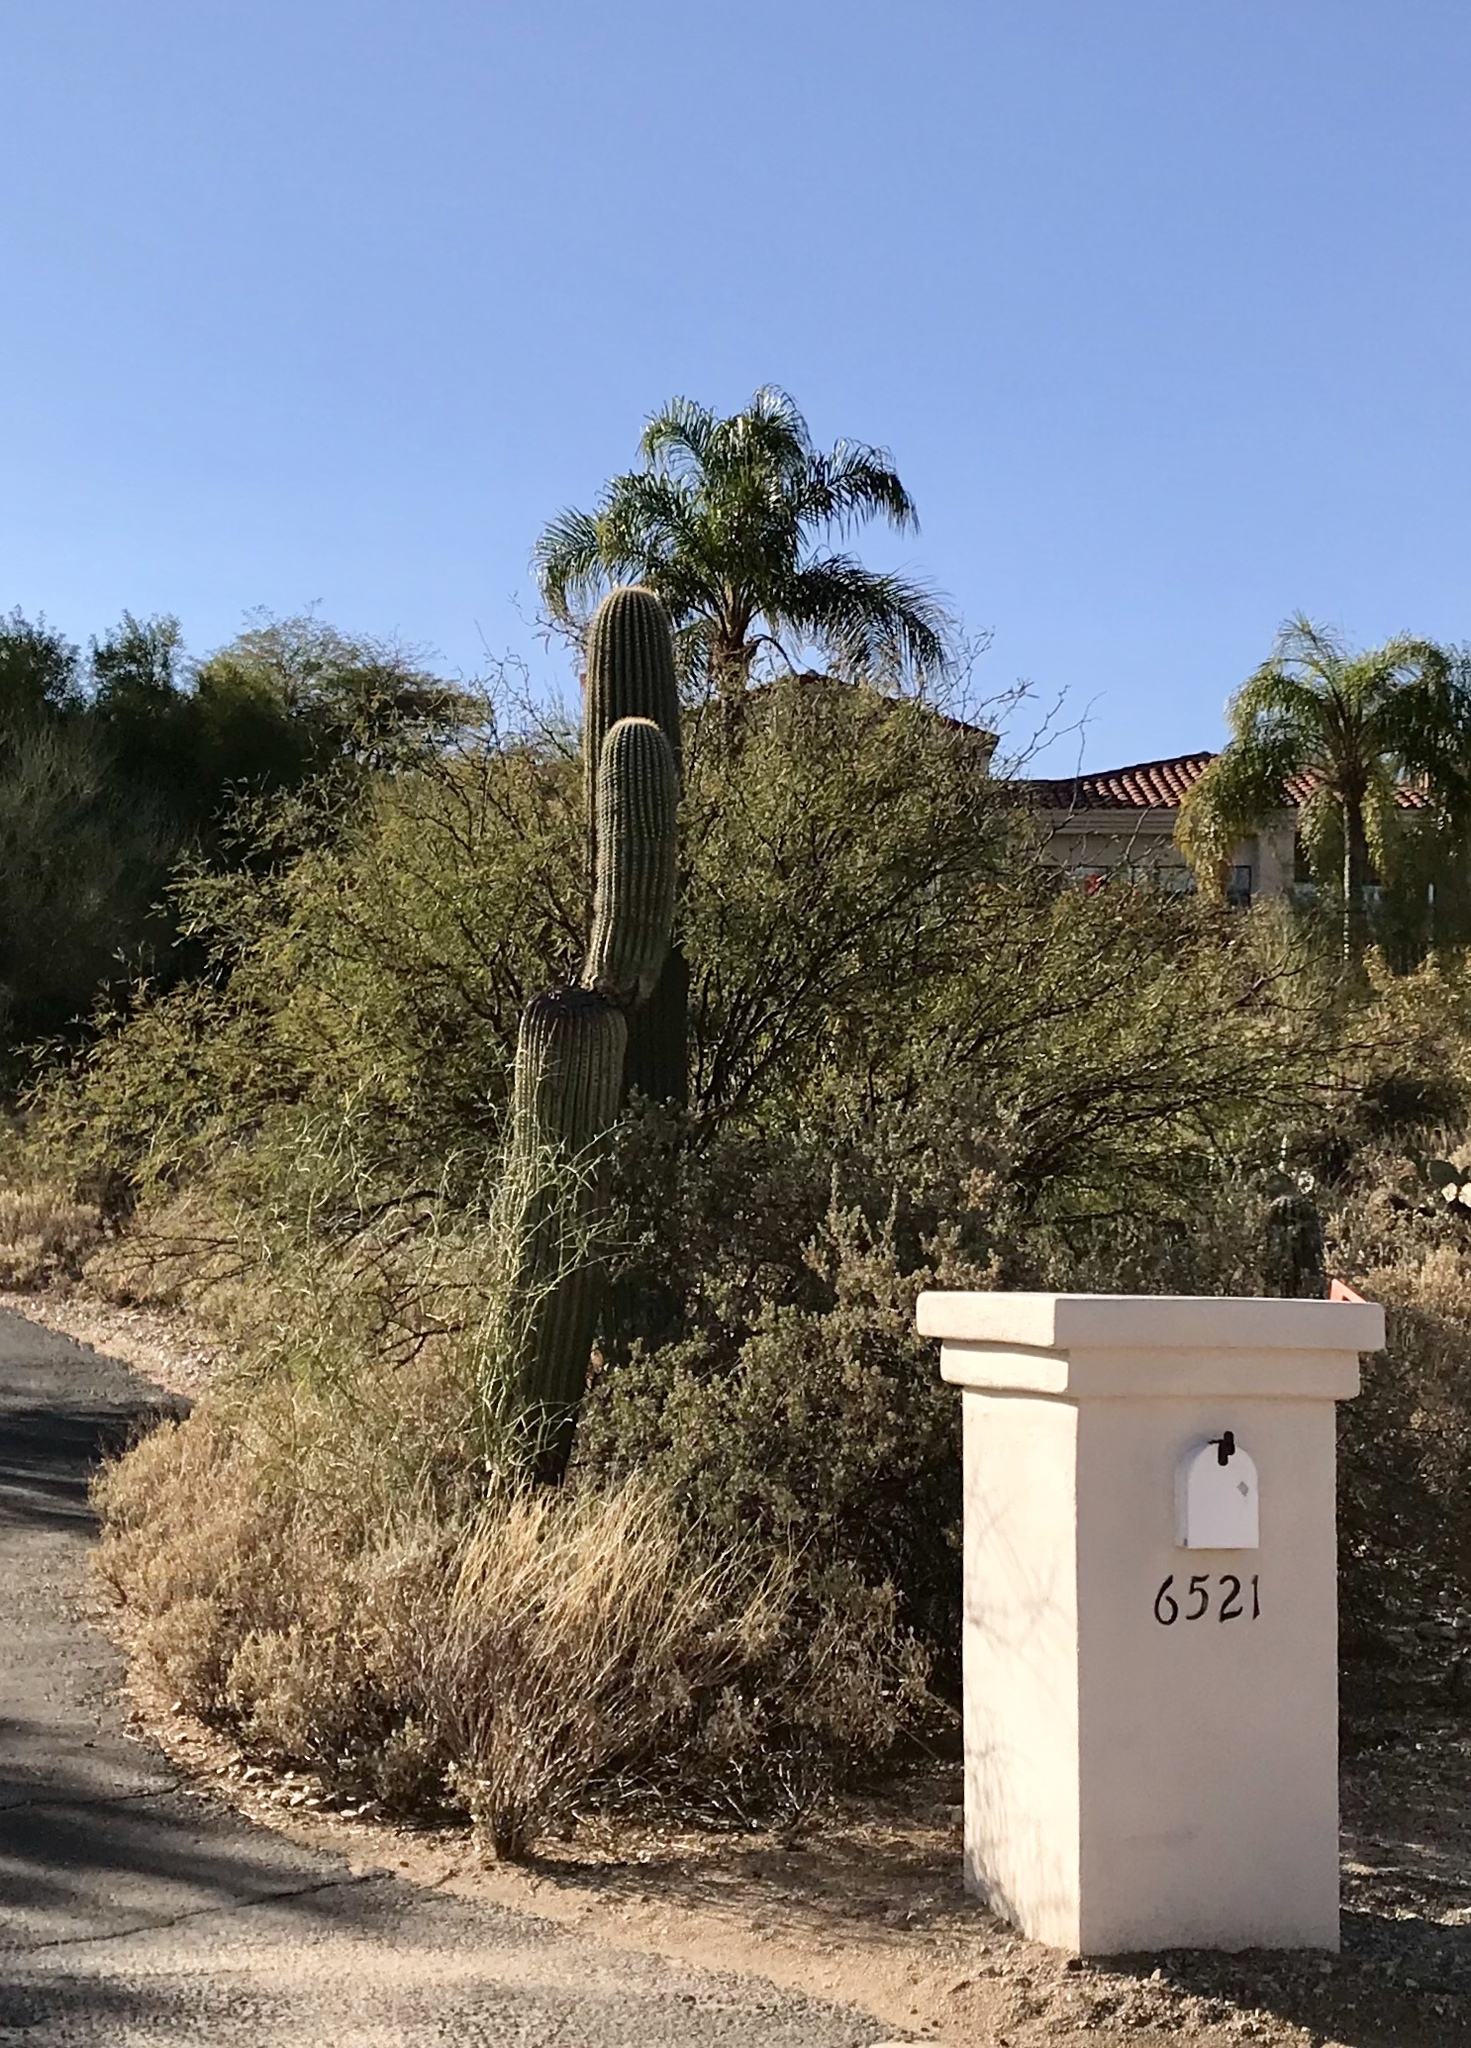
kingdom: Plantae
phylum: Tracheophyta
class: Magnoliopsida
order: Caryophyllales
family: Cactaceae
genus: Carnegiea
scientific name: Carnegiea gigantea
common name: Saguaro
